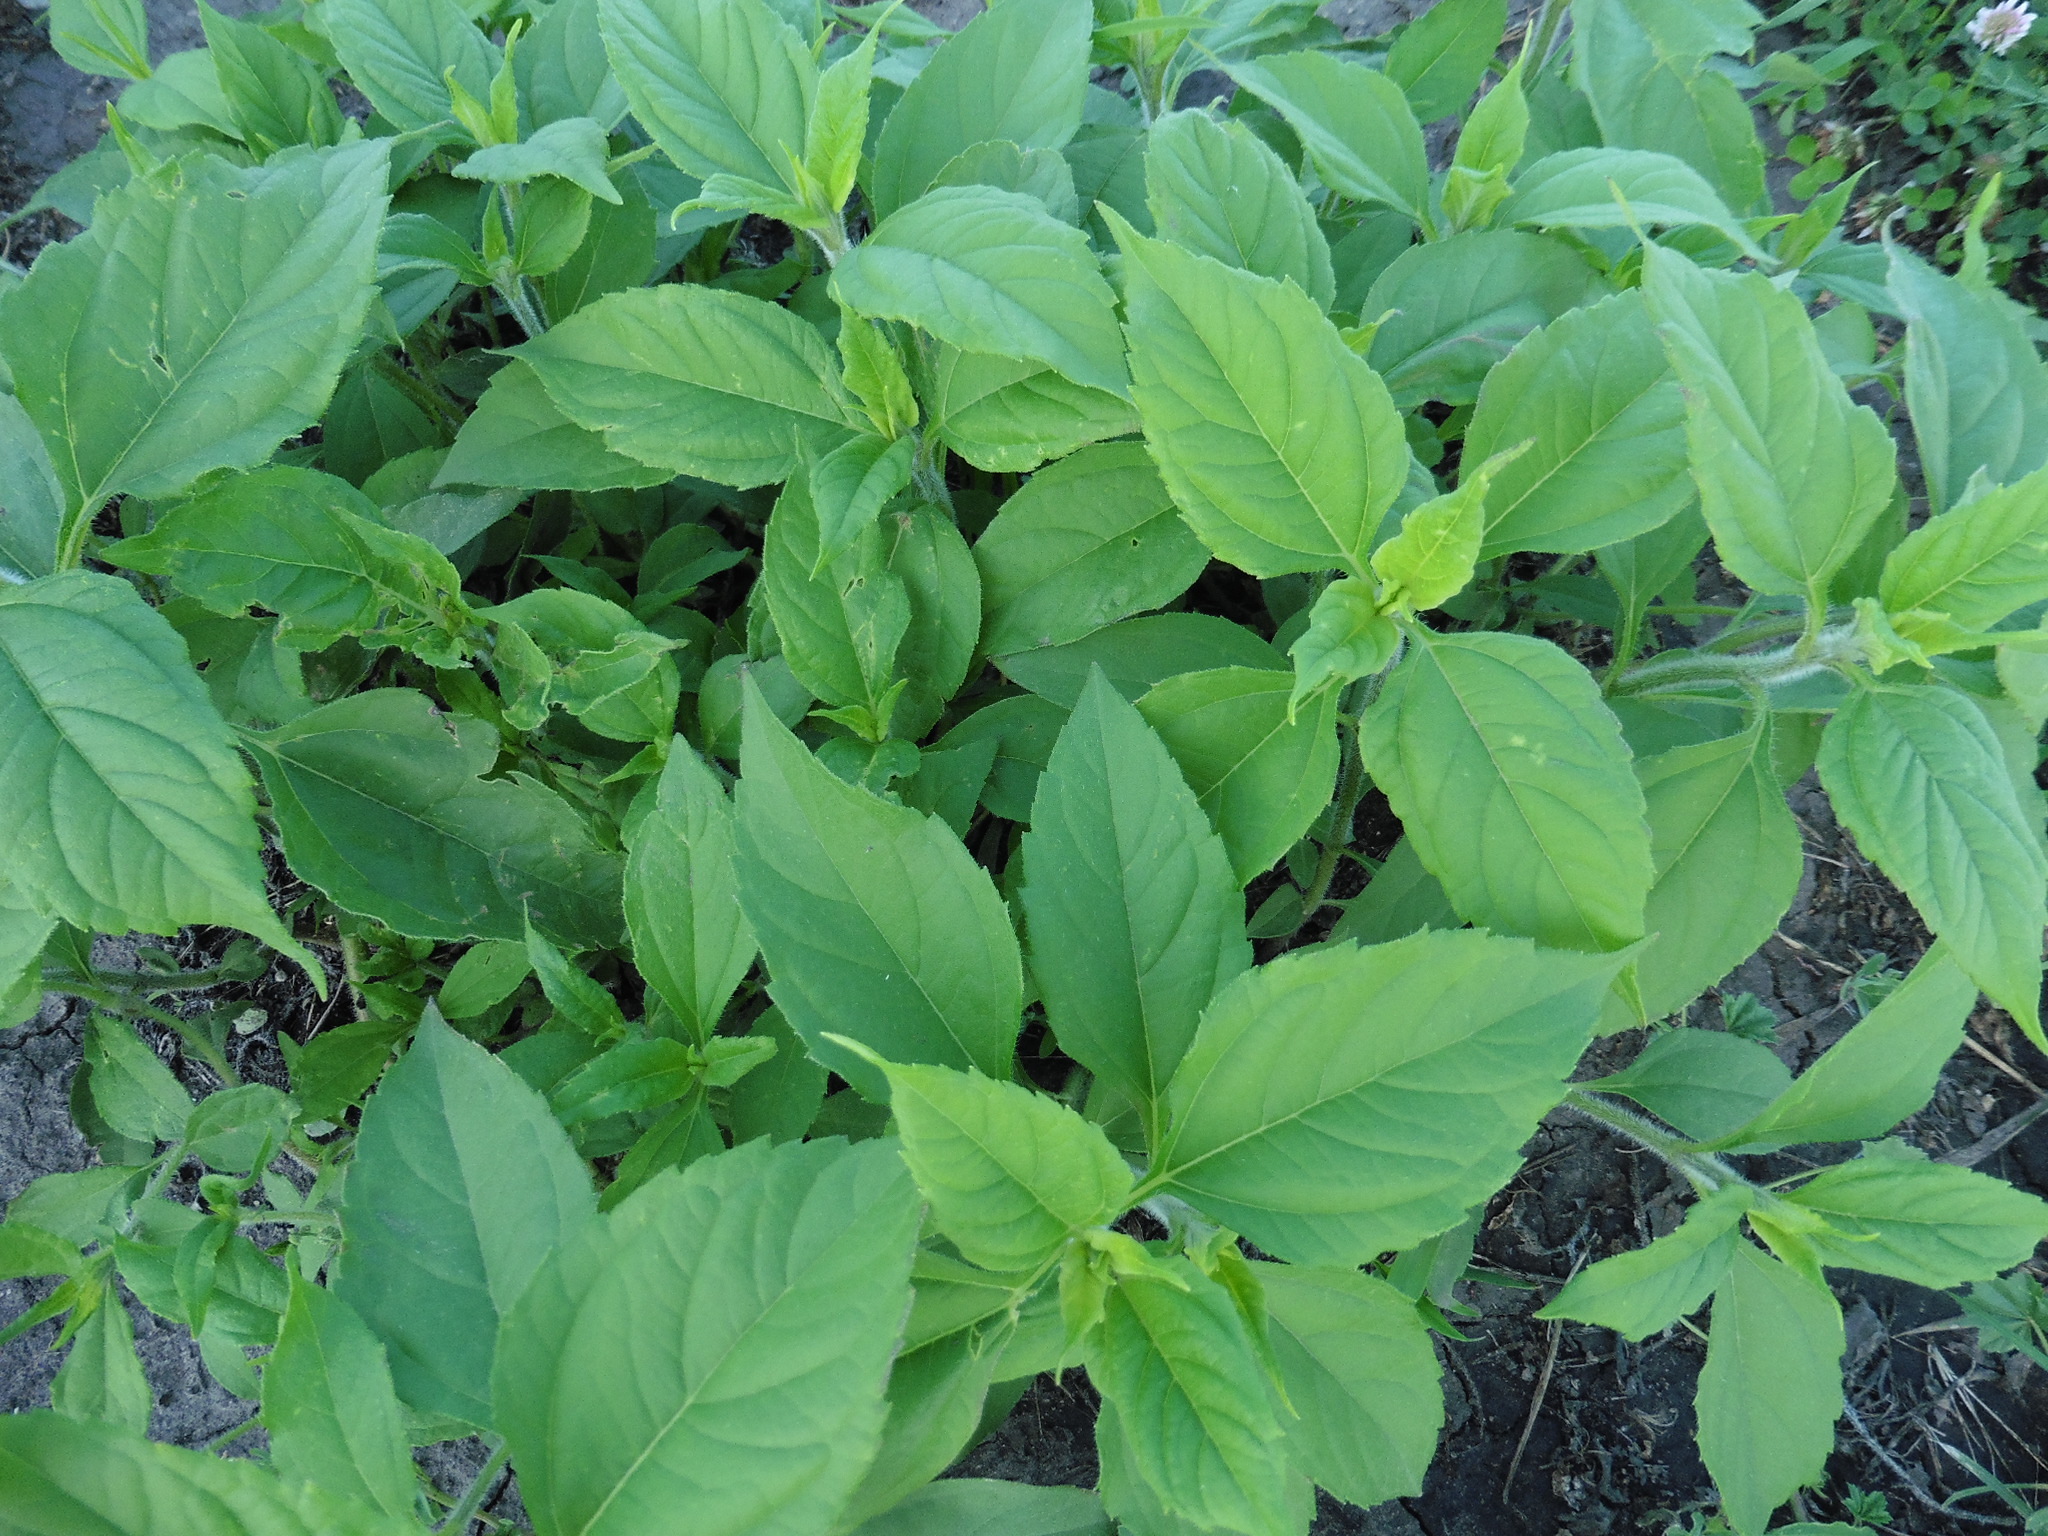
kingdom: Plantae
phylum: Tracheophyta
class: Magnoliopsida
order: Asterales
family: Asteraceae
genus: Helianthus
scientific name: Helianthus tuberosus
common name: Jerusalem artichoke
